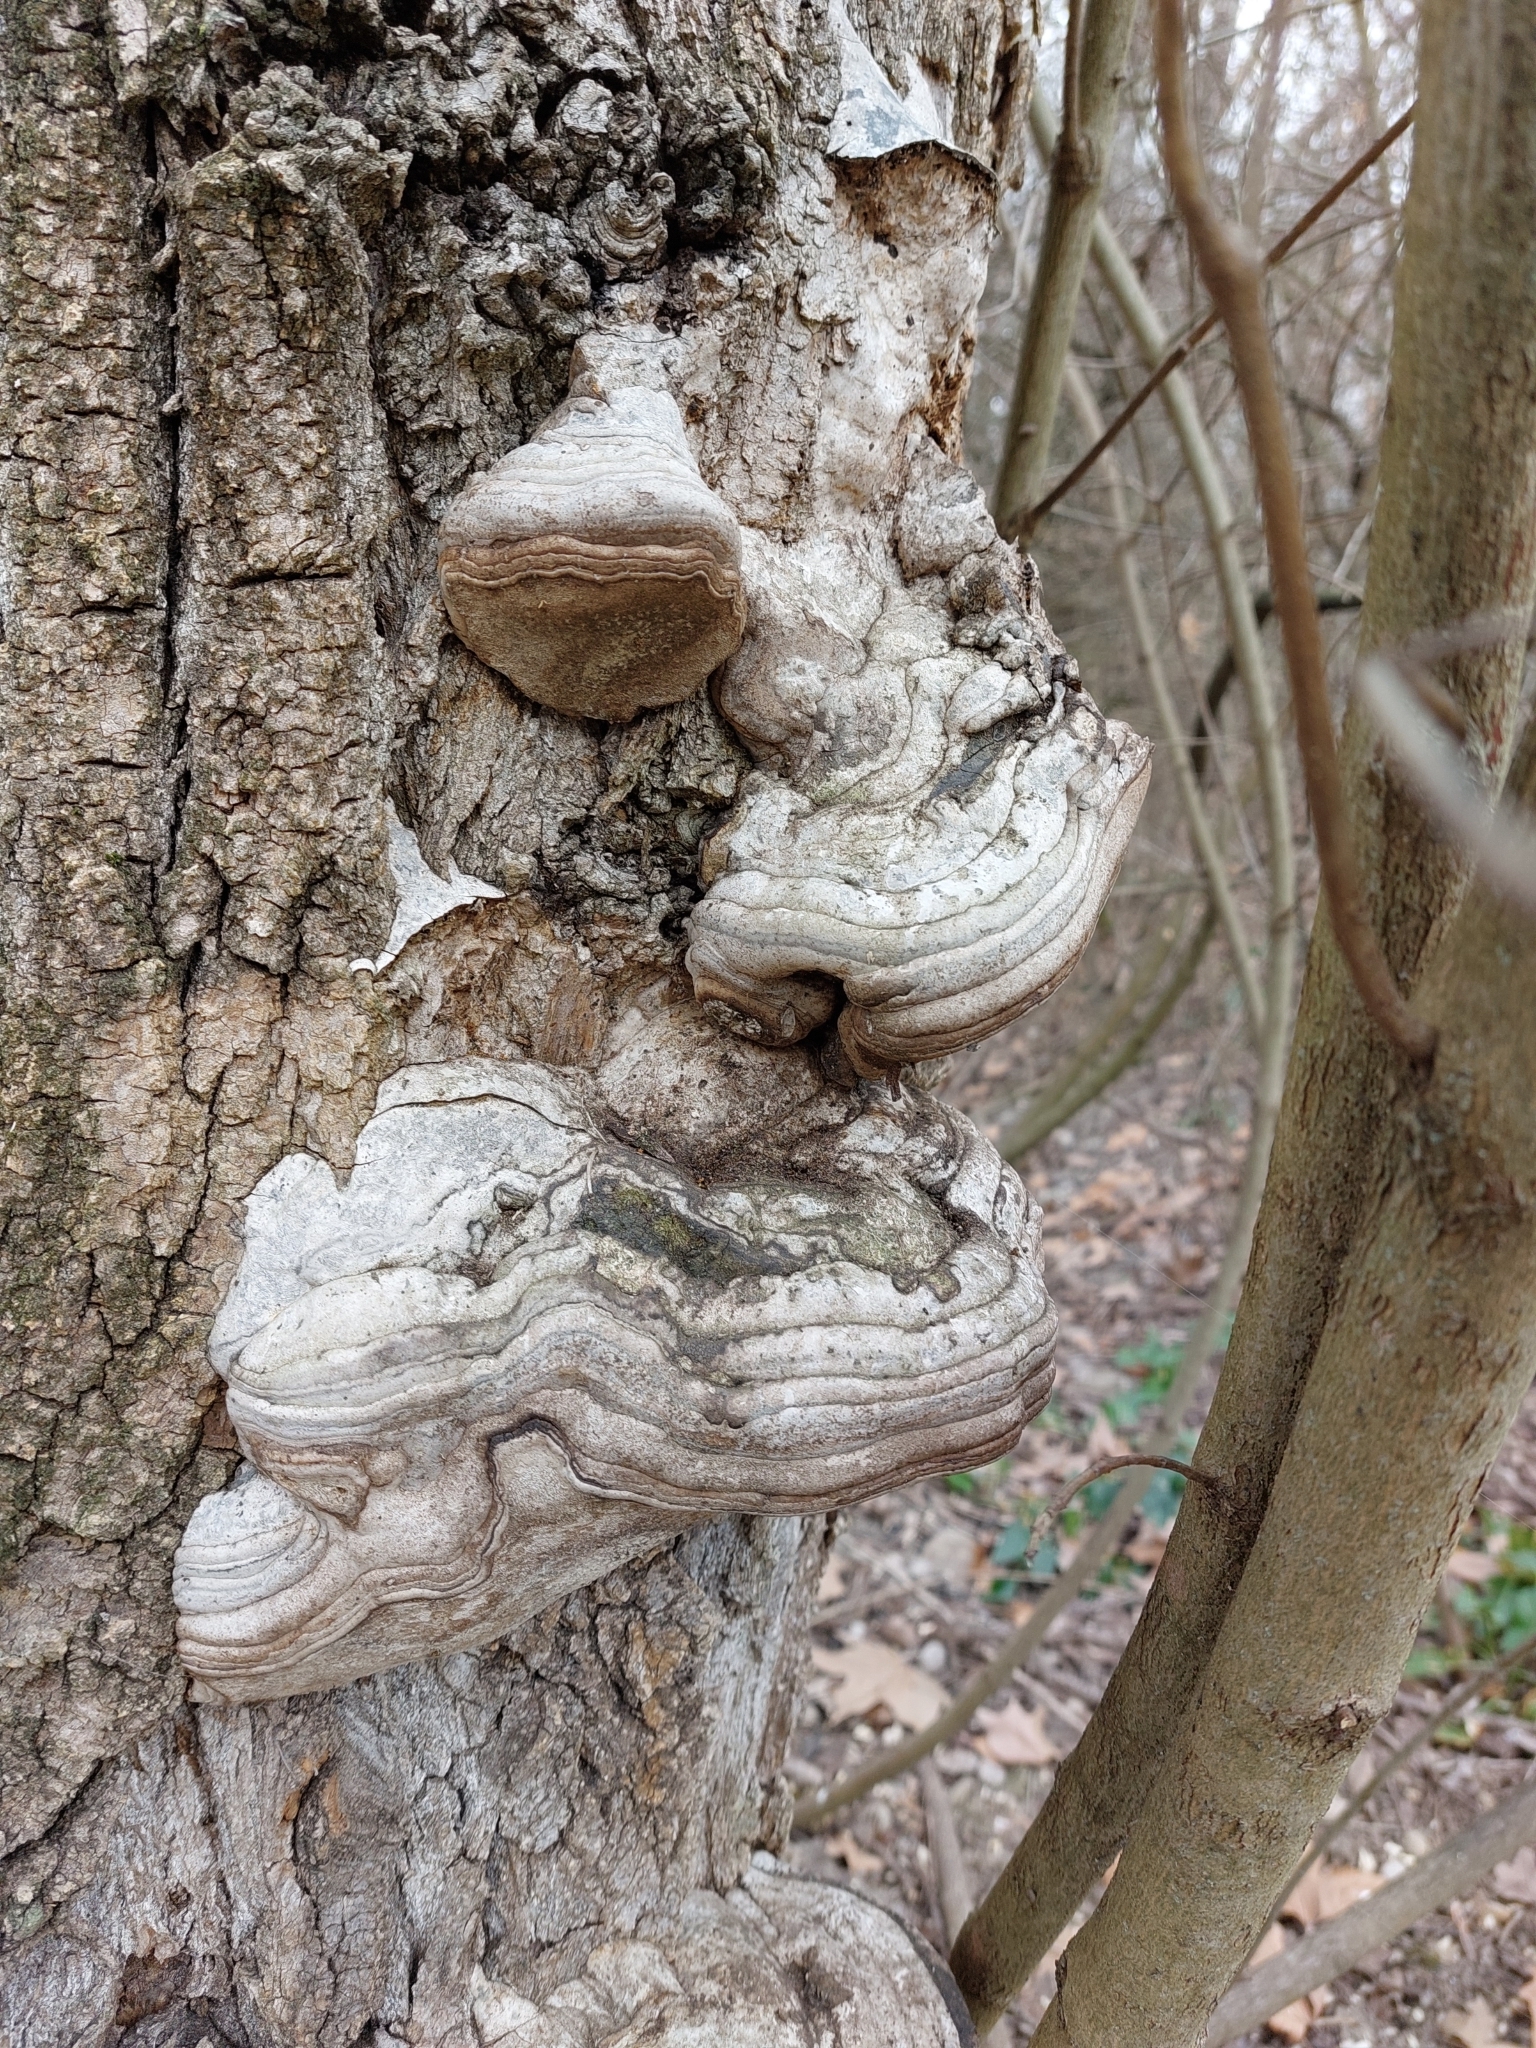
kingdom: Fungi
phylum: Basidiomycota
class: Agaricomycetes
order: Polyporales
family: Polyporaceae
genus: Fomes
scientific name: Fomes fomentarius
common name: Hoof fungus
